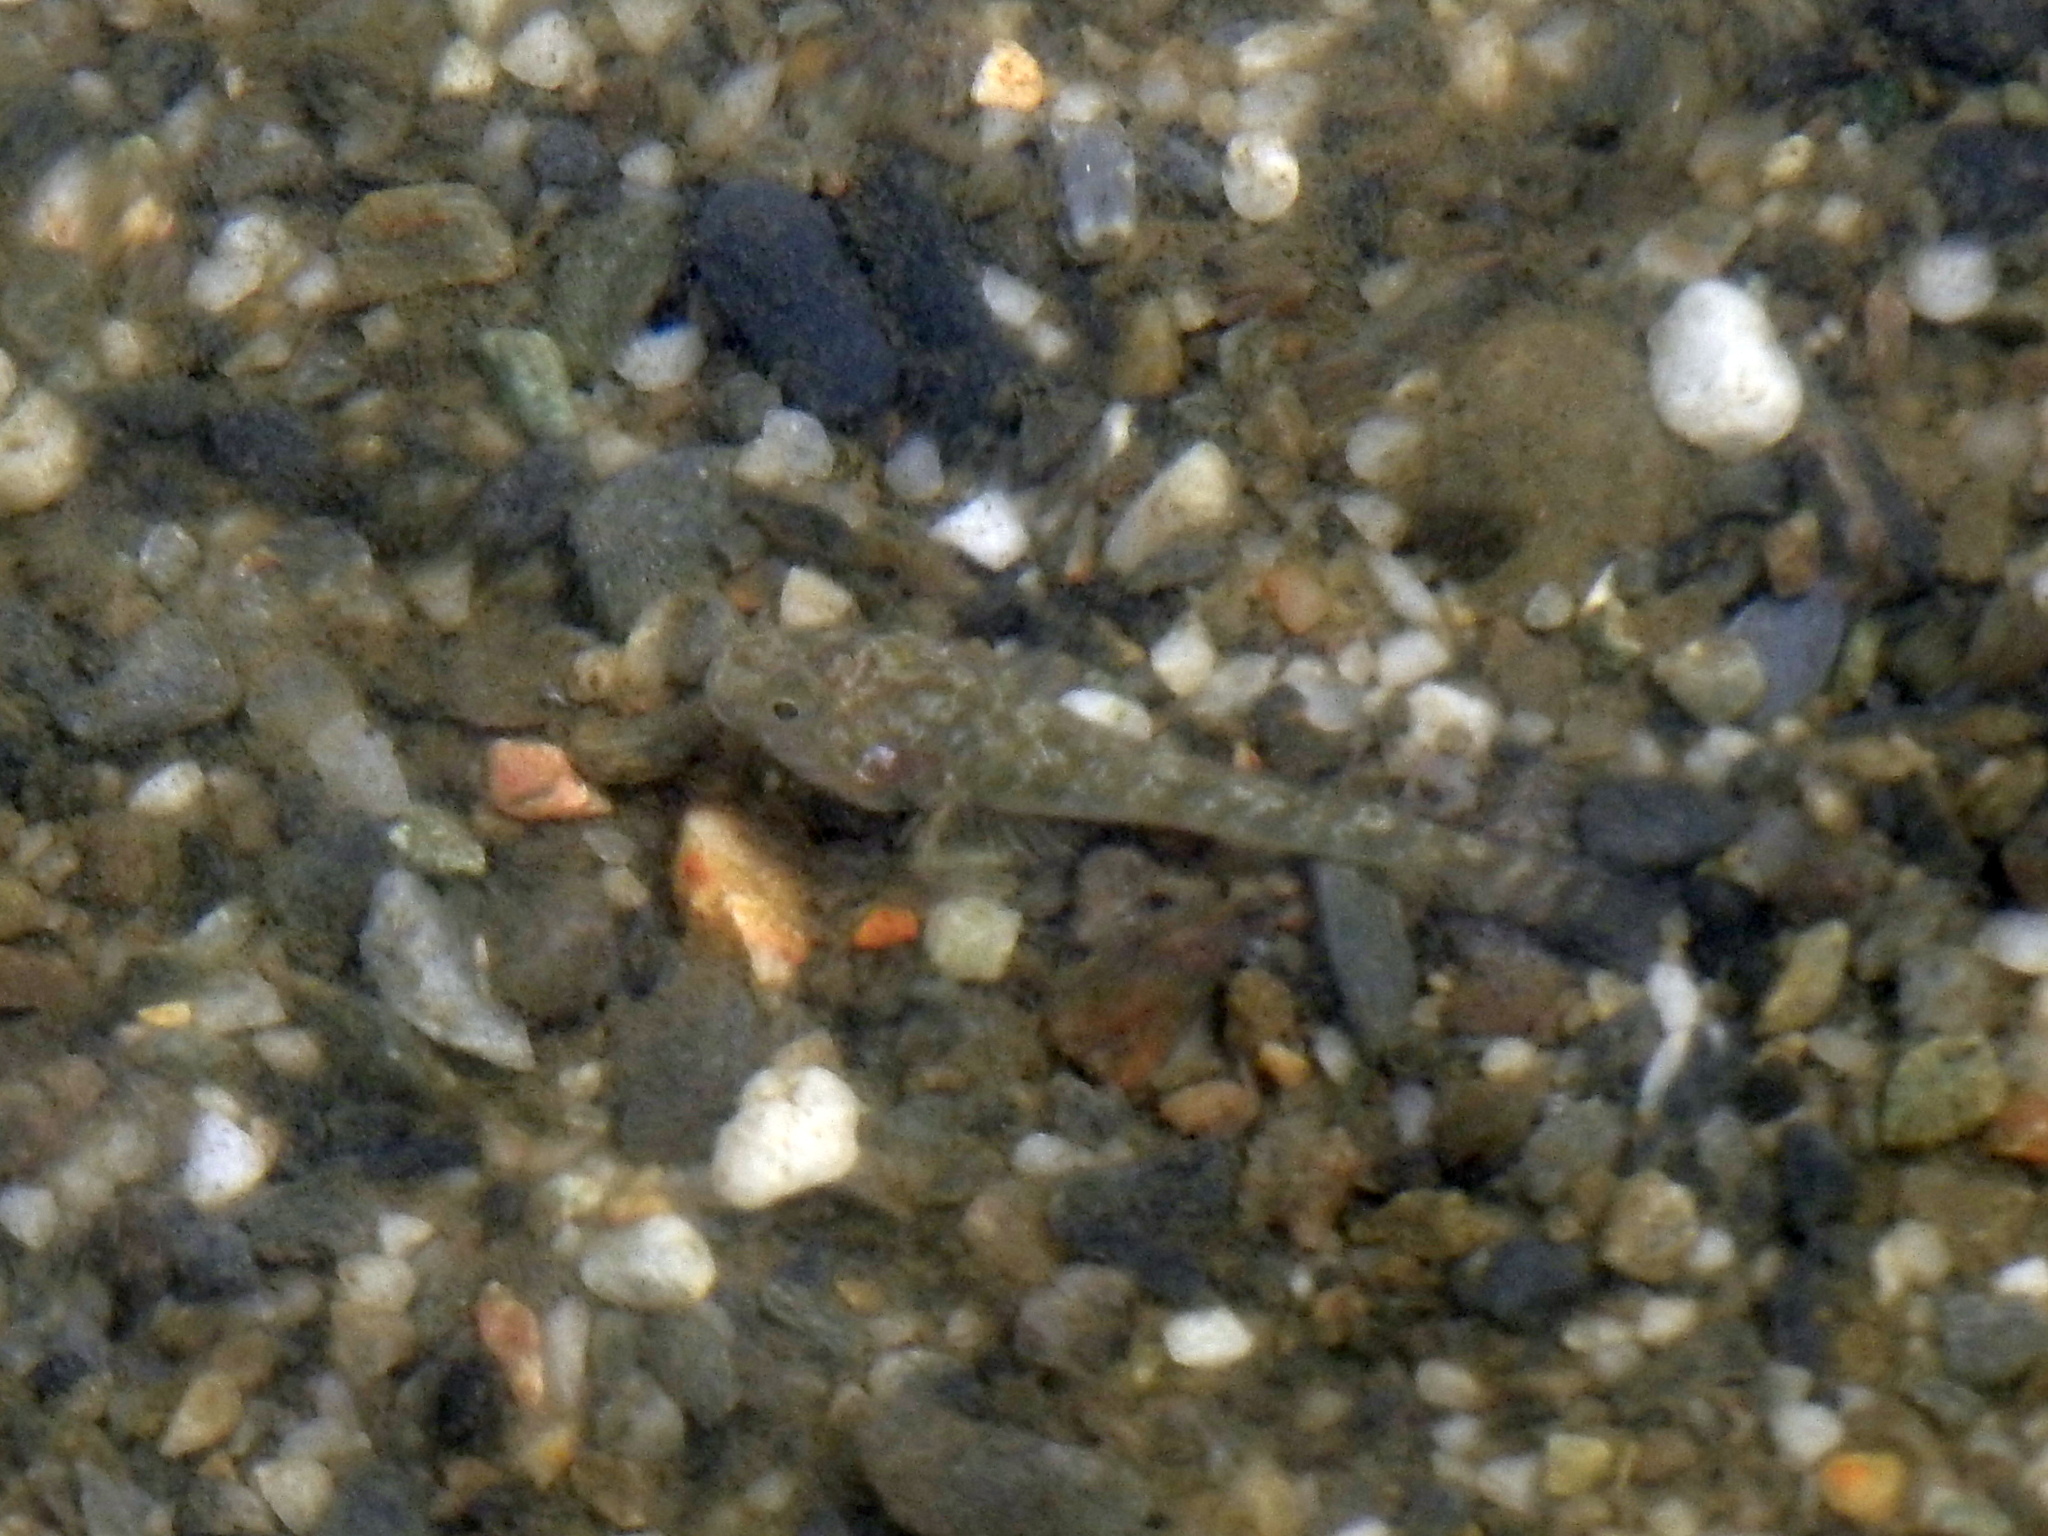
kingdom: Animalia
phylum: Chordata
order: Perciformes
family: Gobiidae
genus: Rhinogobius
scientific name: Rhinogobius similis
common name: Amur goby
